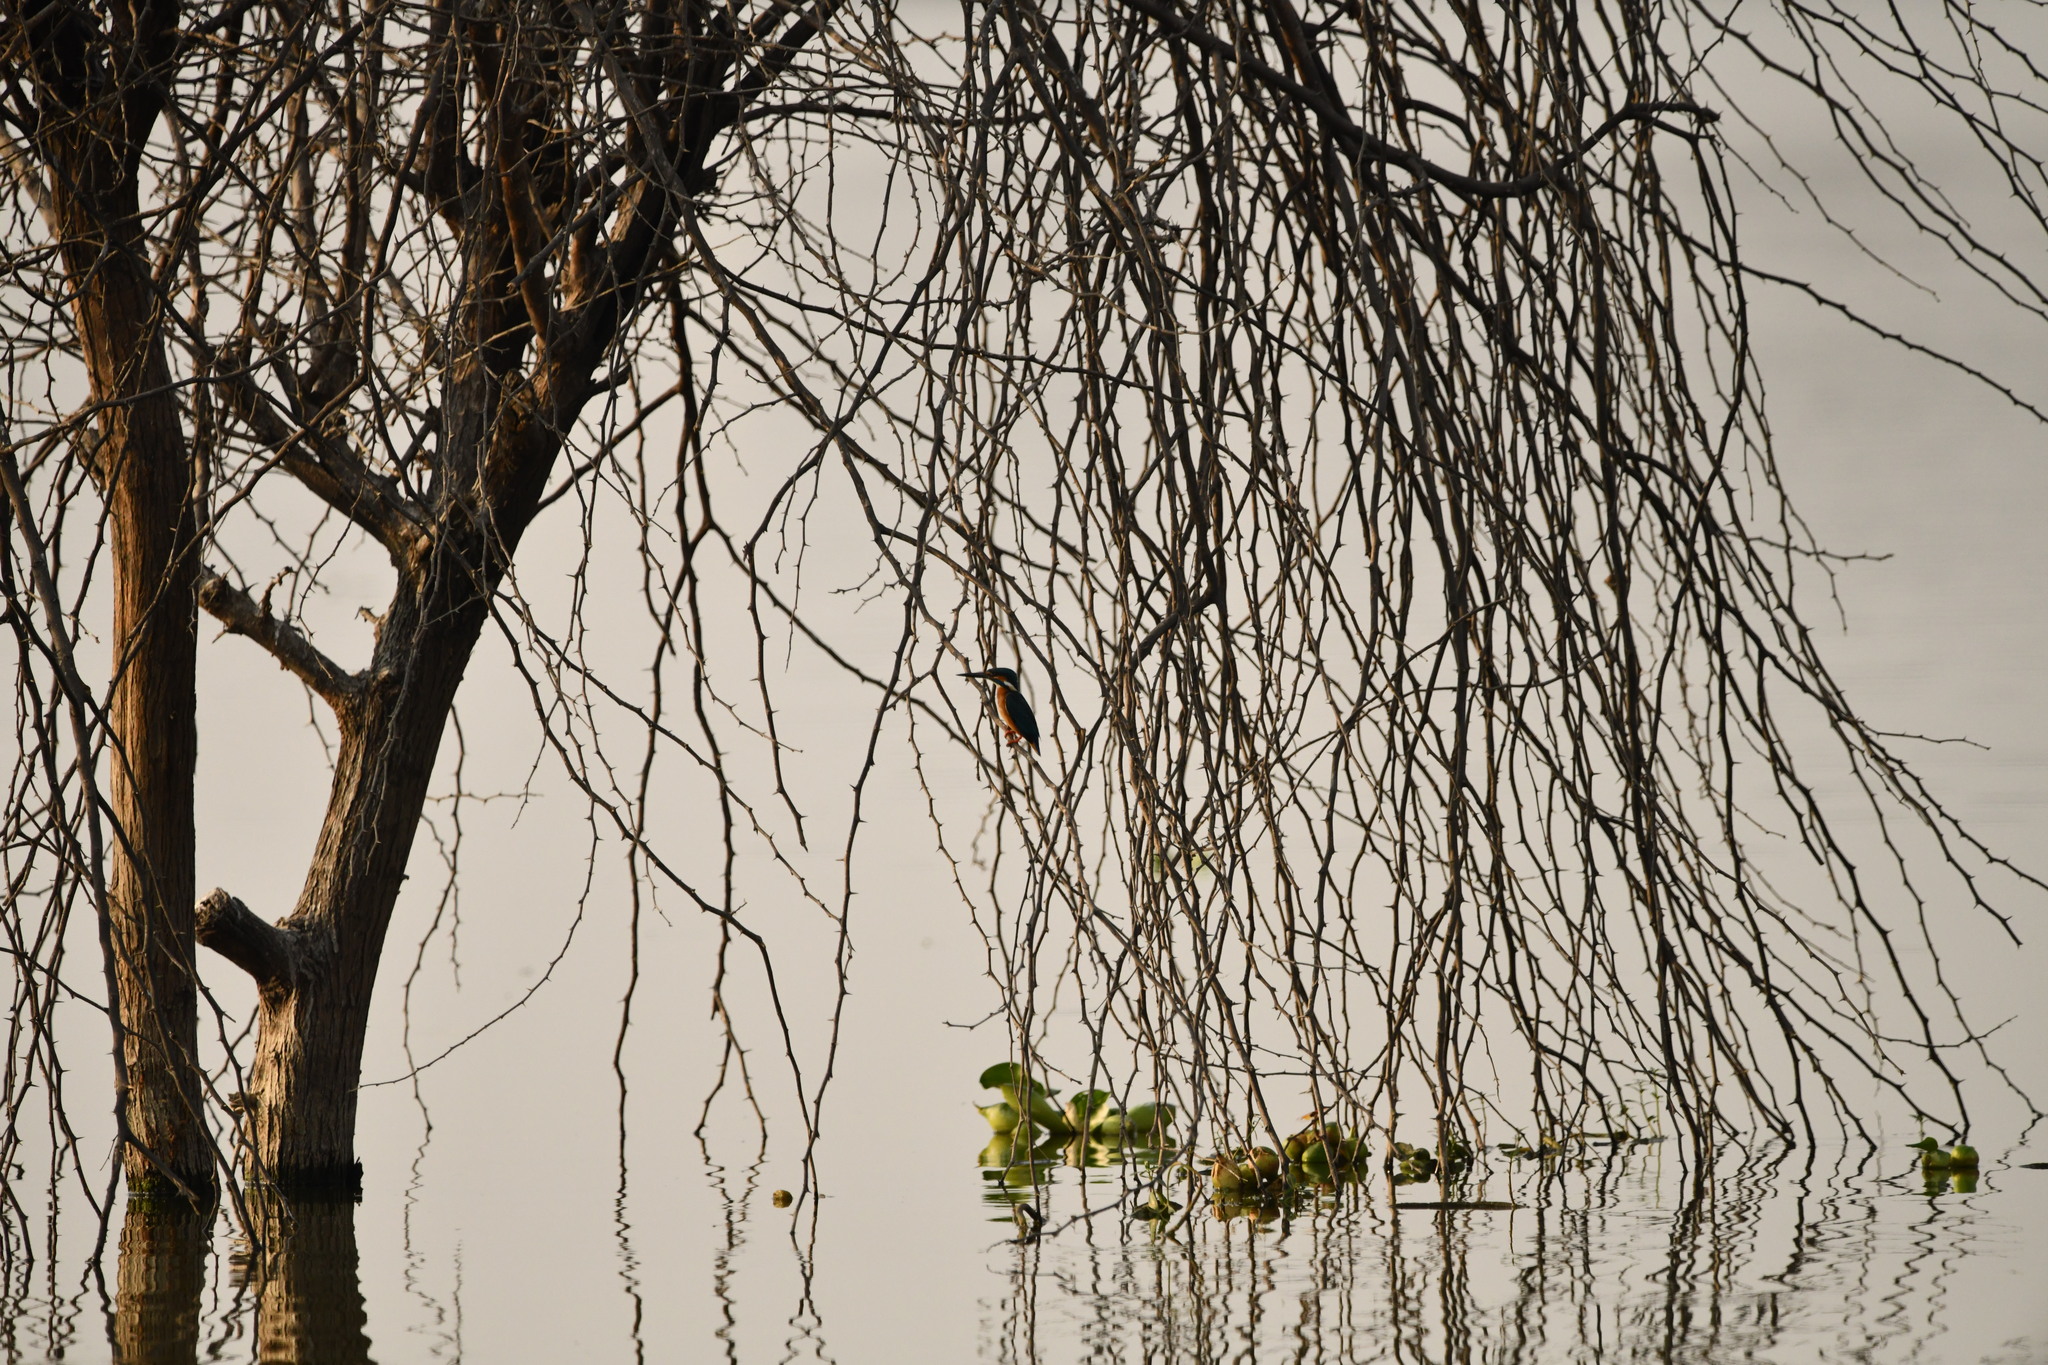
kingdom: Animalia
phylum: Chordata
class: Aves
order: Coraciiformes
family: Alcedinidae
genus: Alcedo
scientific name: Alcedo atthis
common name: Common kingfisher
